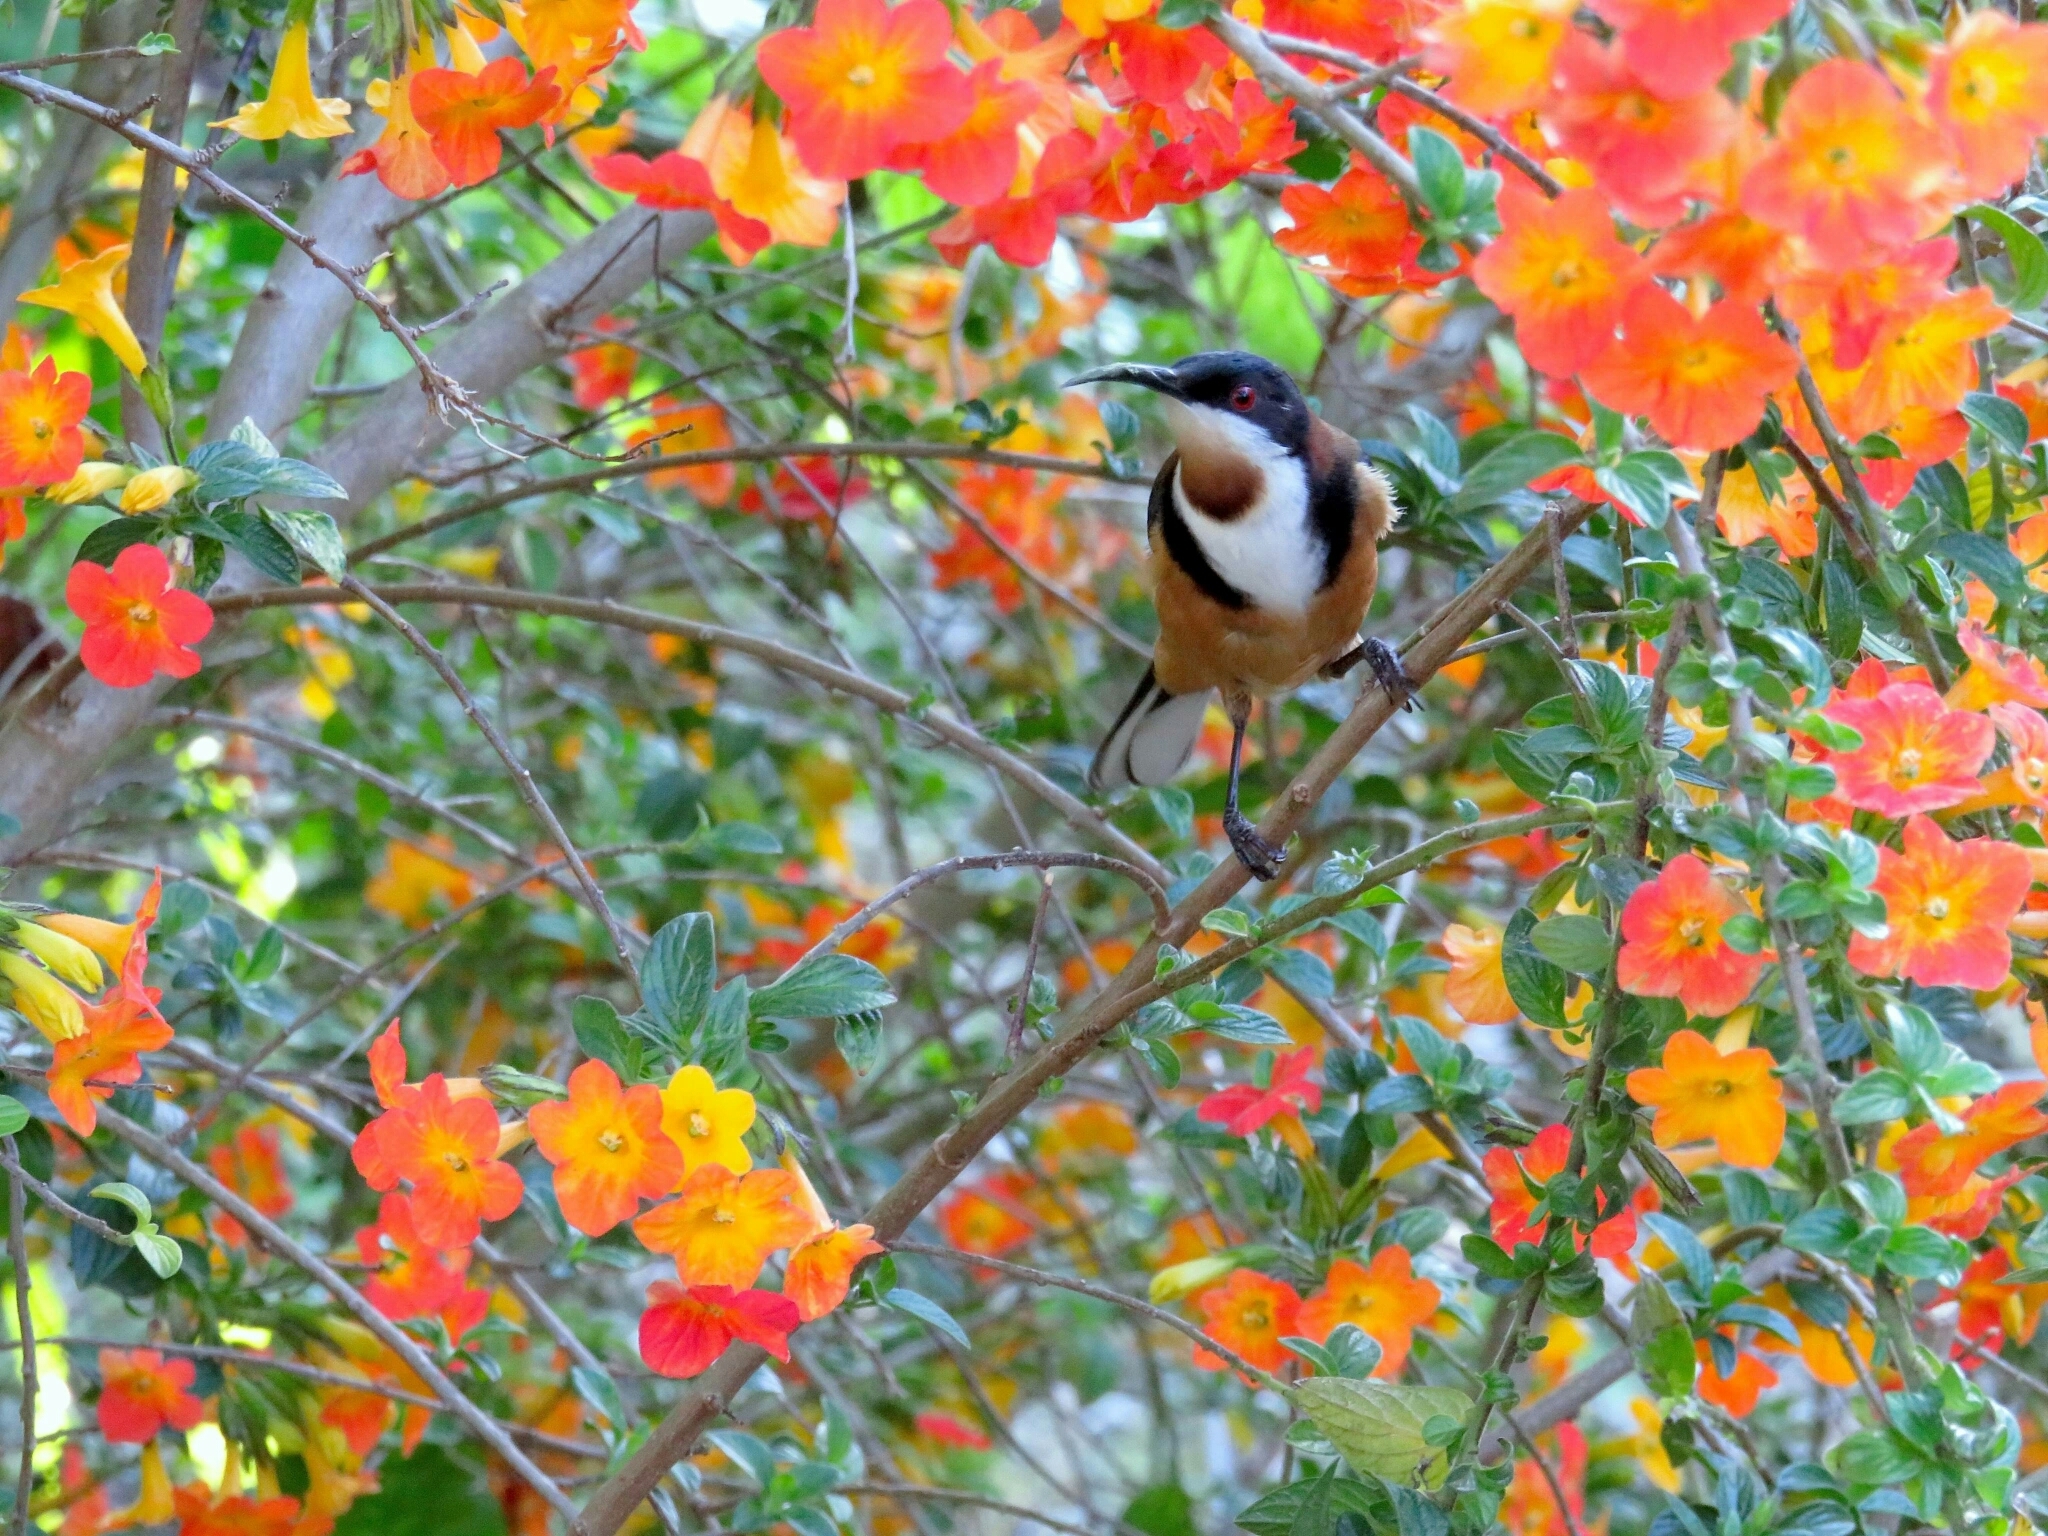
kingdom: Animalia
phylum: Chordata
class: Aves
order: Passeriformes
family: Meliphagidae
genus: Acanthorhynchus
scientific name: Acanthorhynchus tenuirostris
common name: Eastern spinebill
